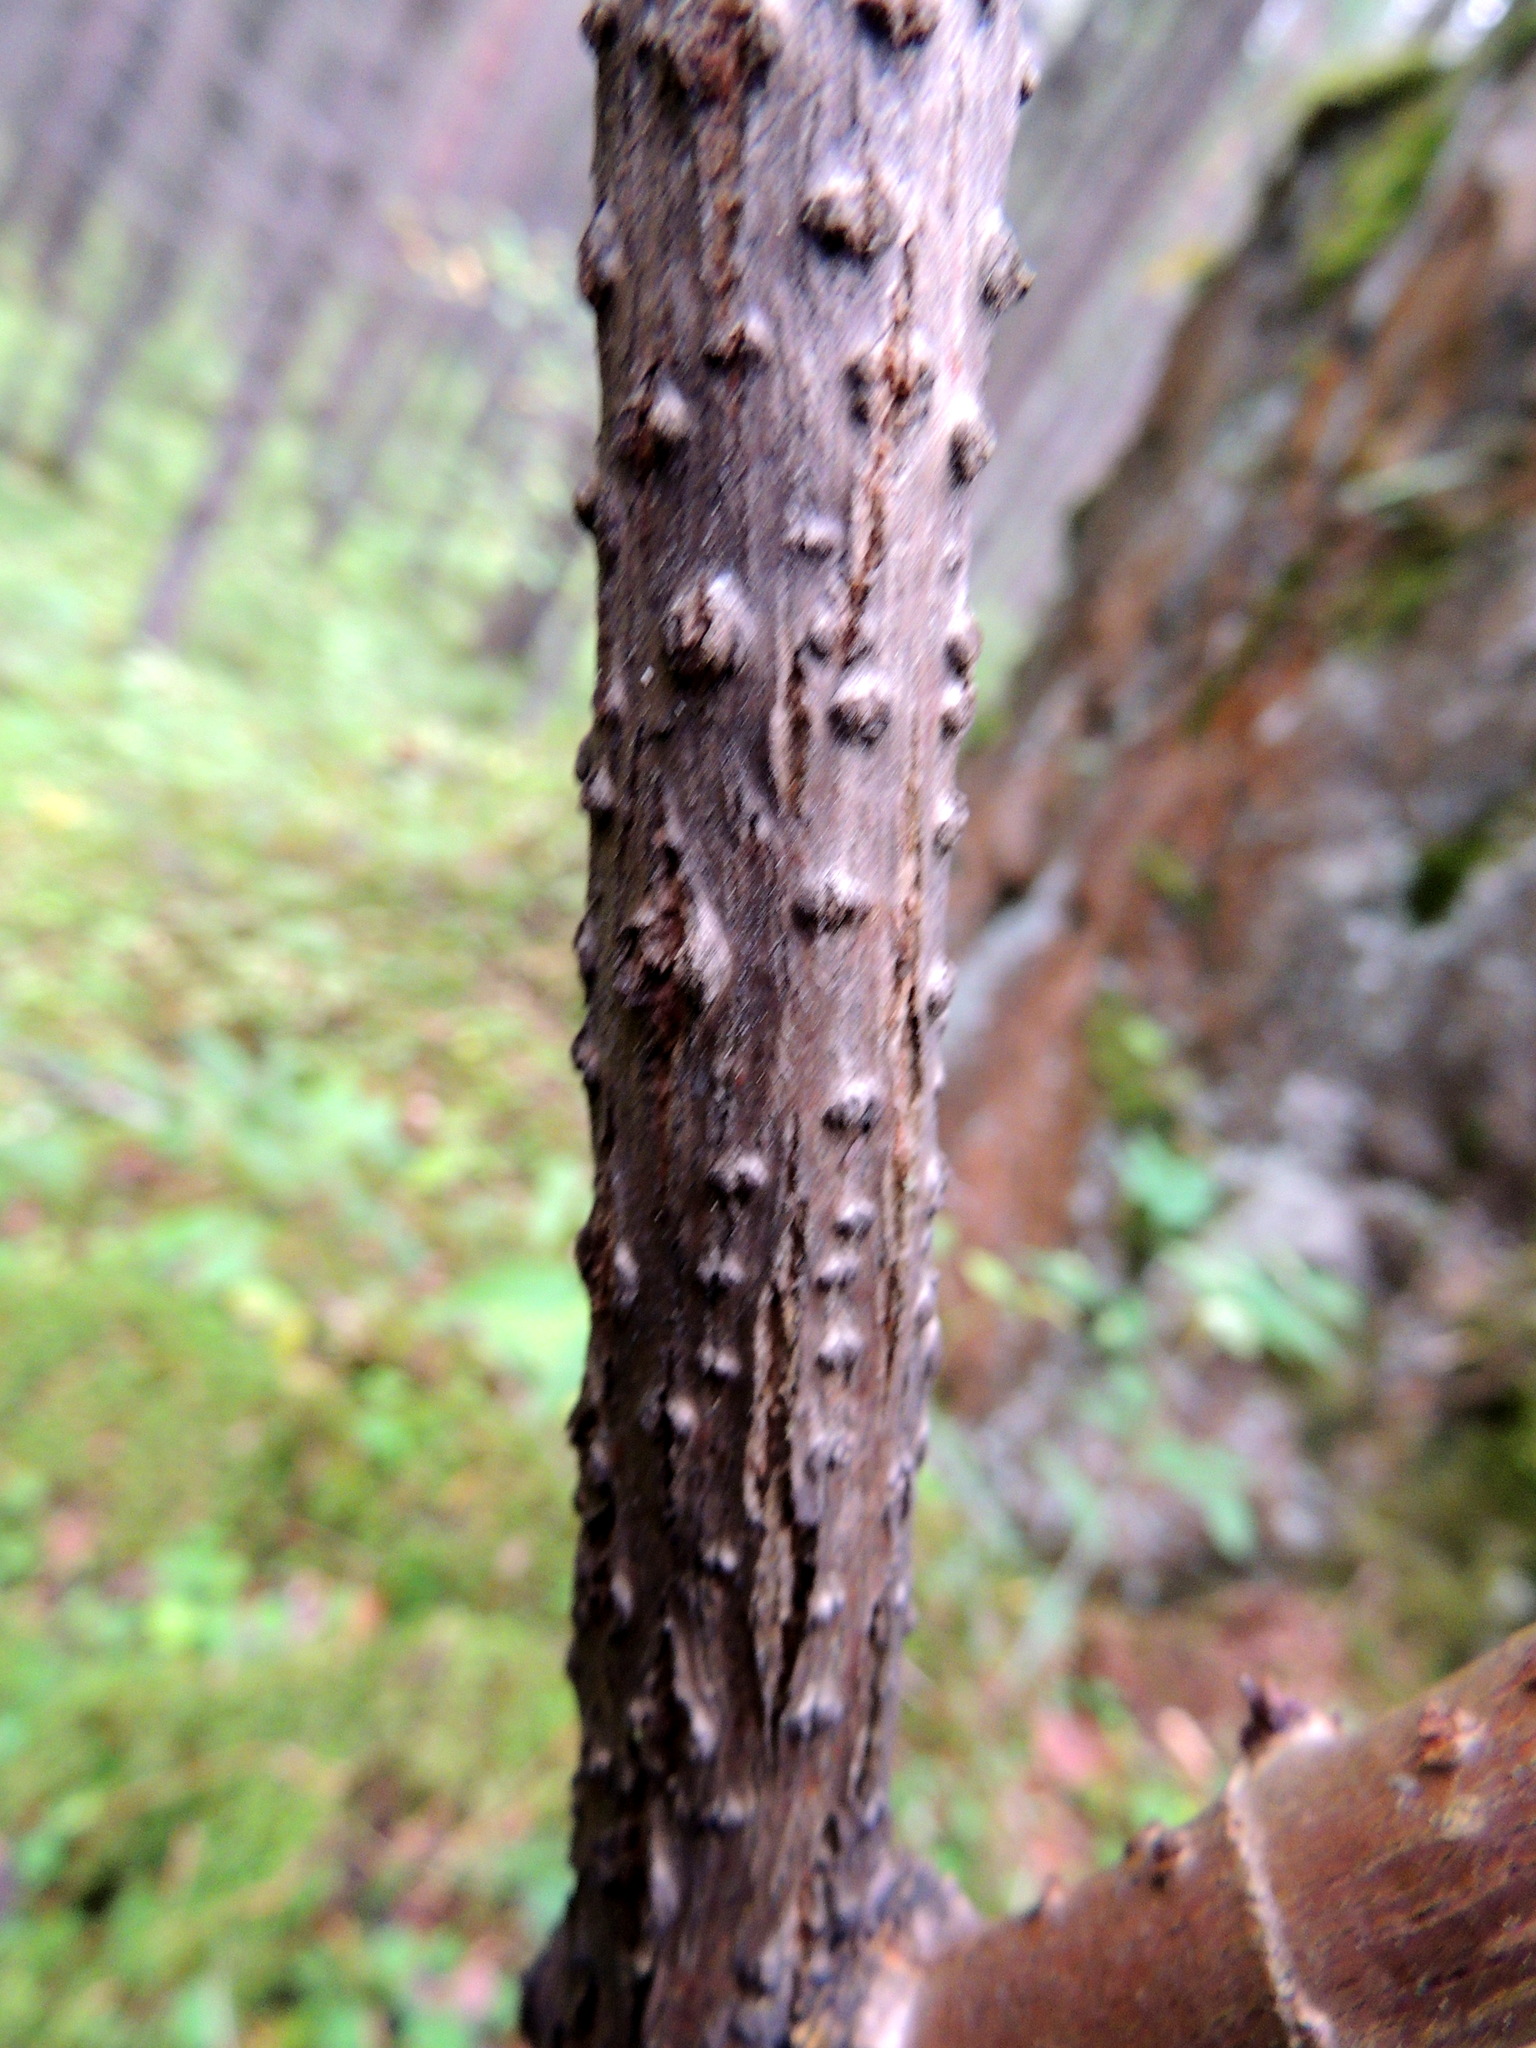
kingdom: Plantae
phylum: Tracheophyta
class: Magnoliopsida
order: Dipsacales
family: Viburnaceae
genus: Sambucus
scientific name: Sambucus sibirica
